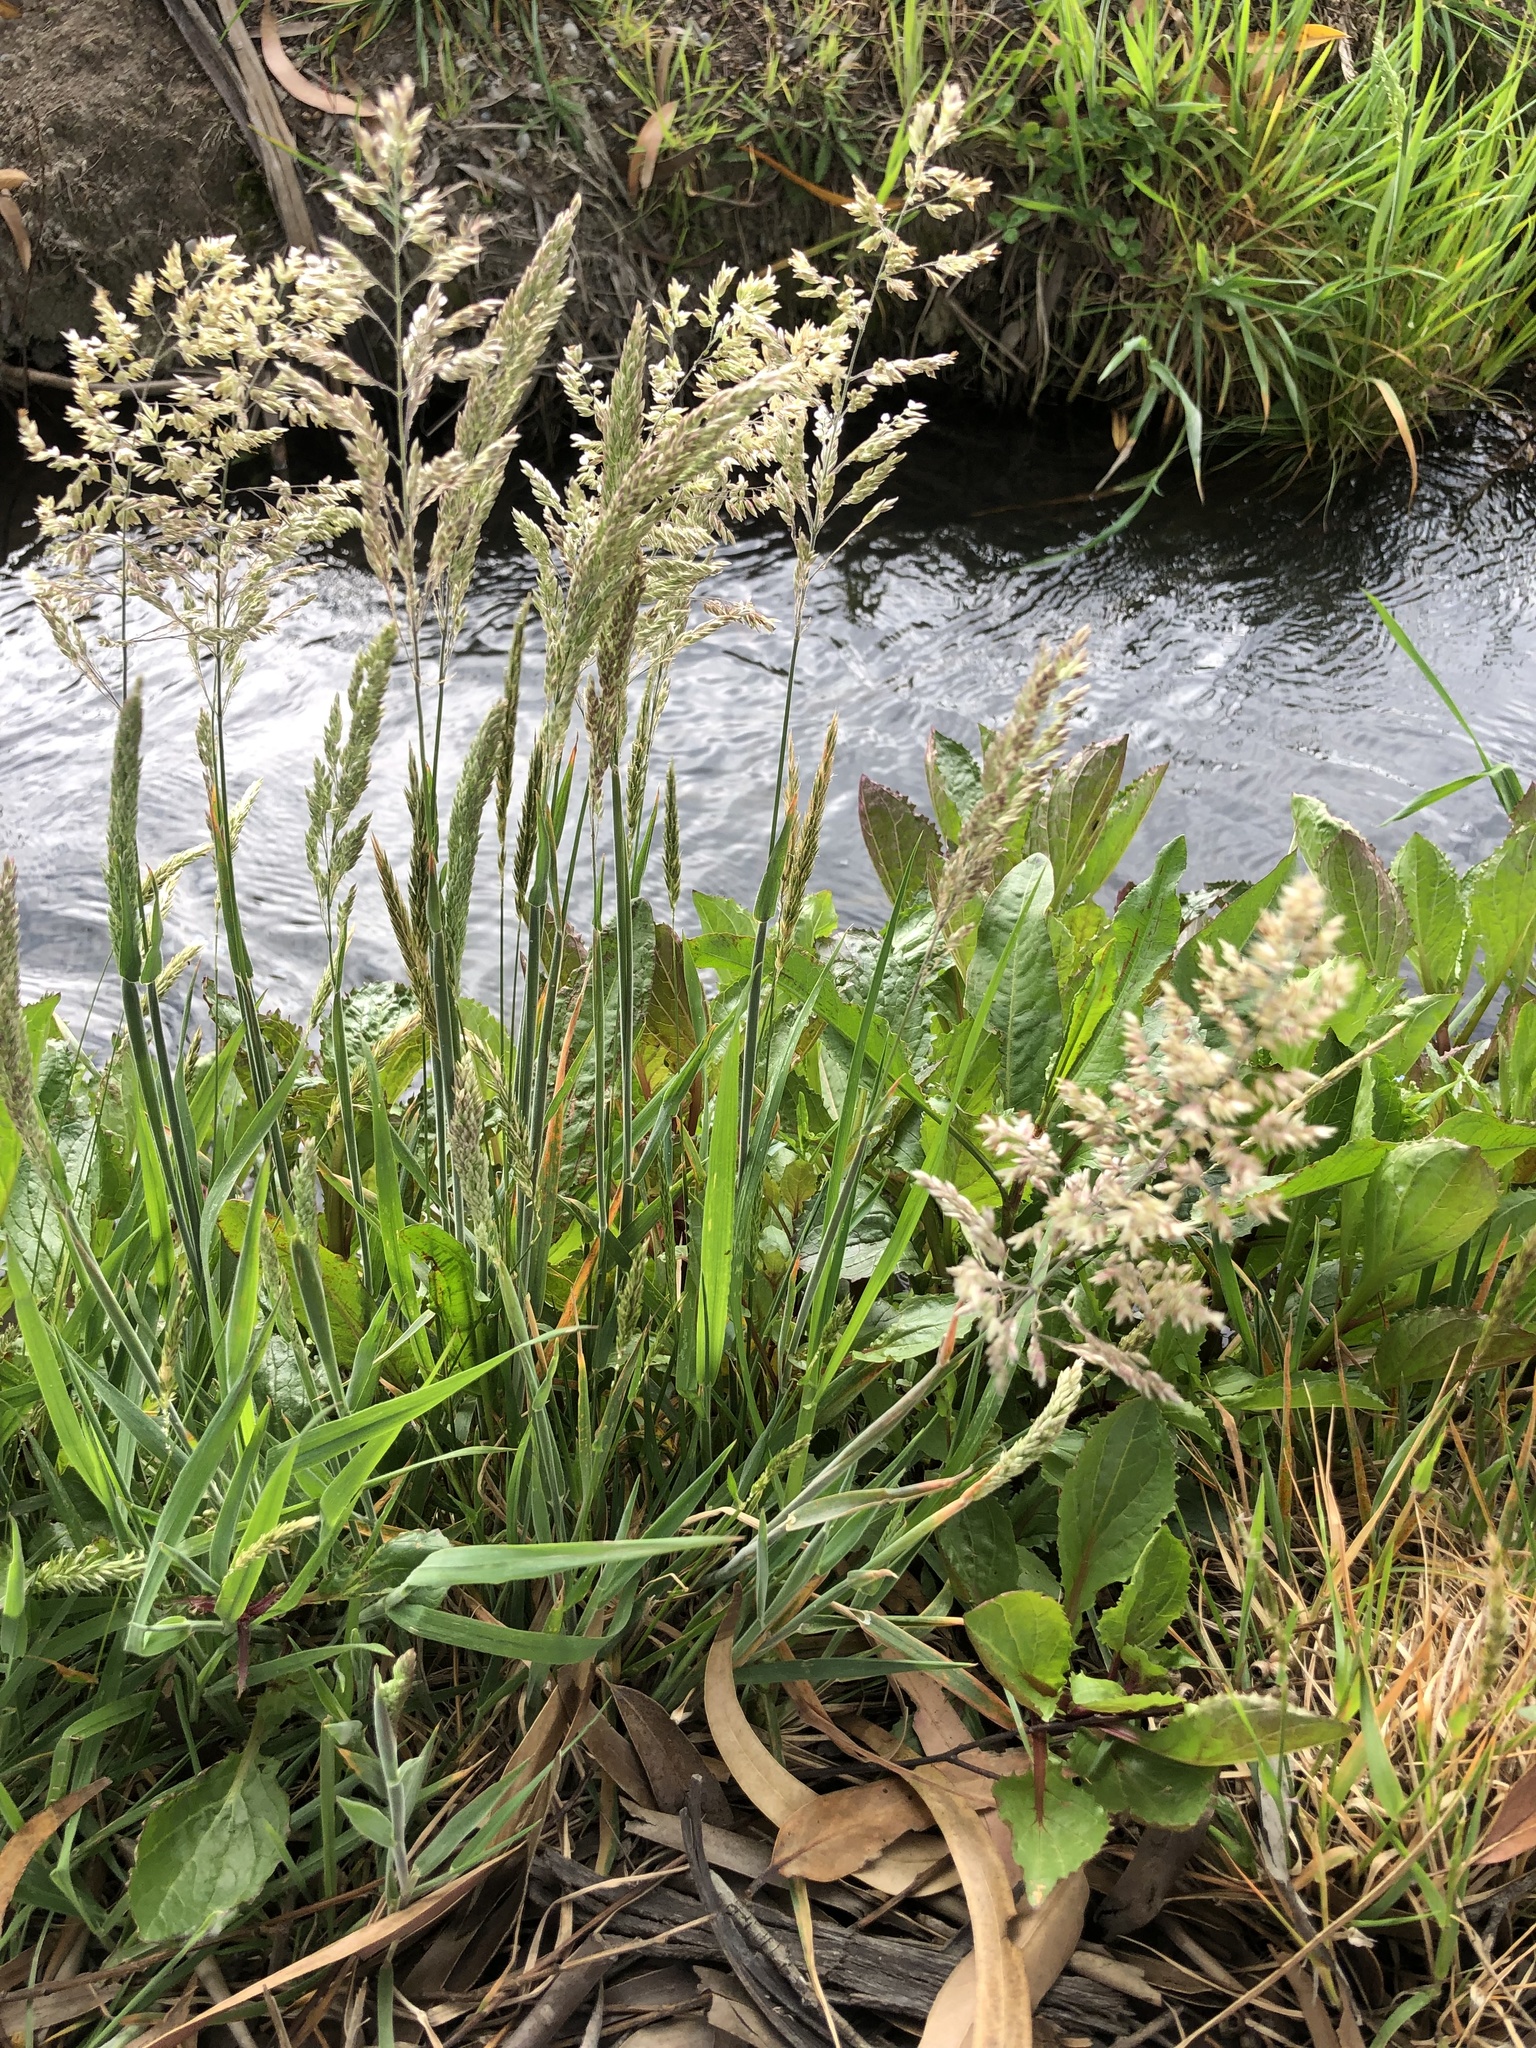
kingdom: Plantae
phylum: Tracheophyta
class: Liliopsida
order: Poales
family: Poaceae
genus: Holcus
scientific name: Holcus lanatus
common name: Yorkshire-fog
